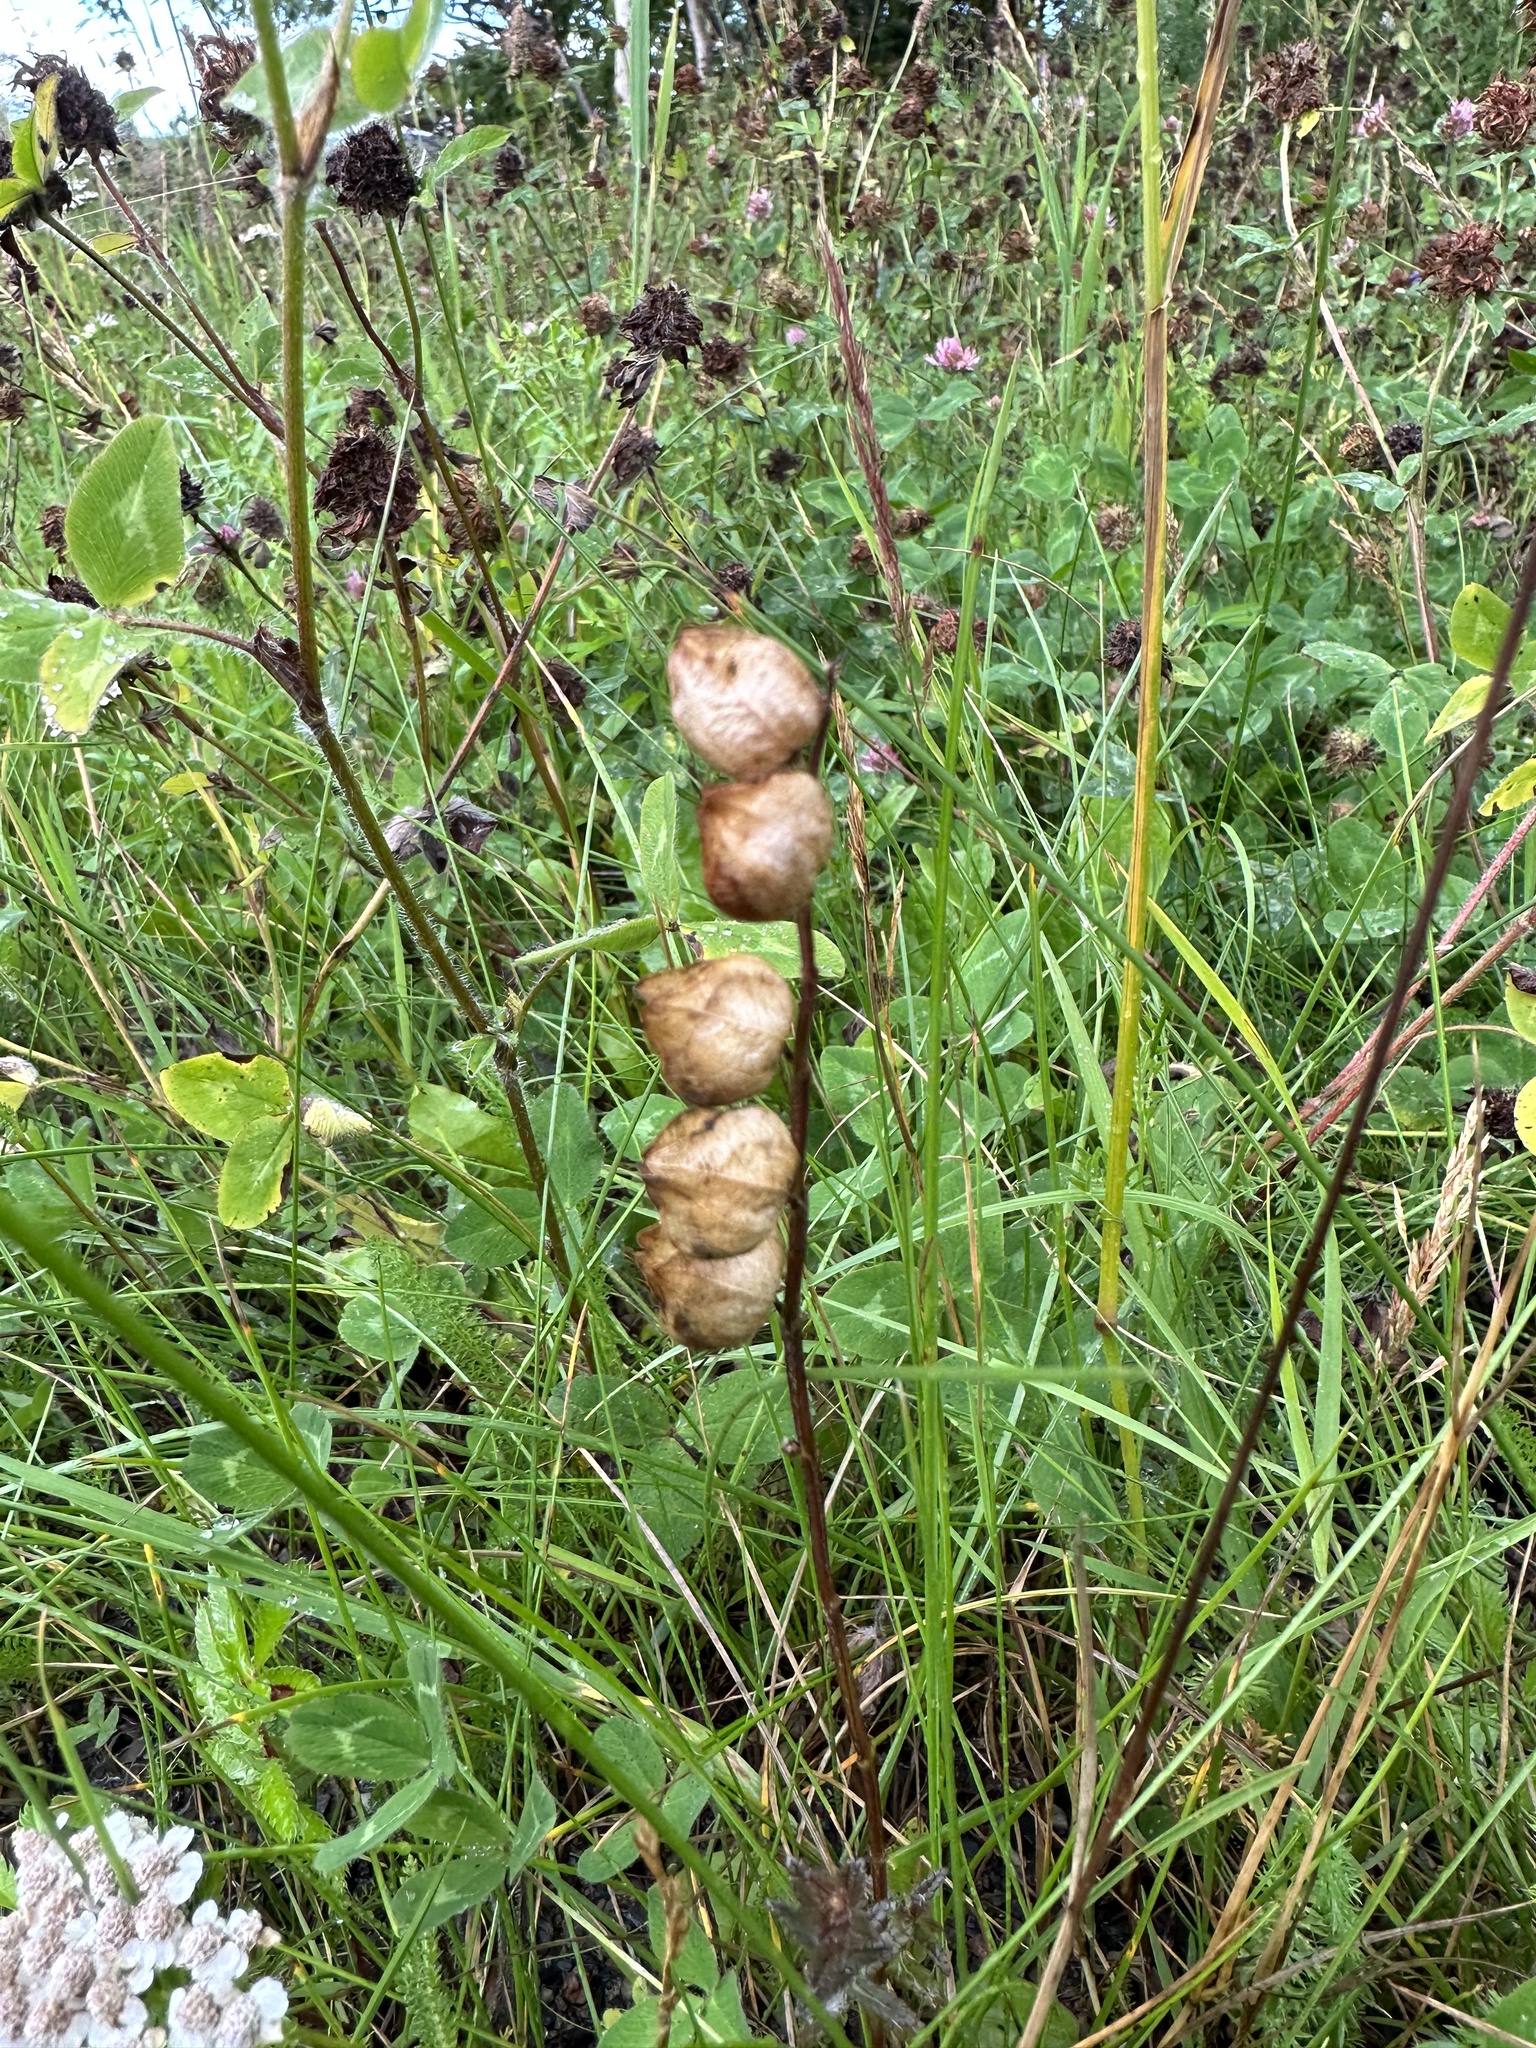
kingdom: Plantae
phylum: Tracheophyta
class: Magnoliopsida
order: Lamiales
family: Orobanchaceae
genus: Rhinanthus
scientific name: Rhinanthus minor
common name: Yellow-rattle
